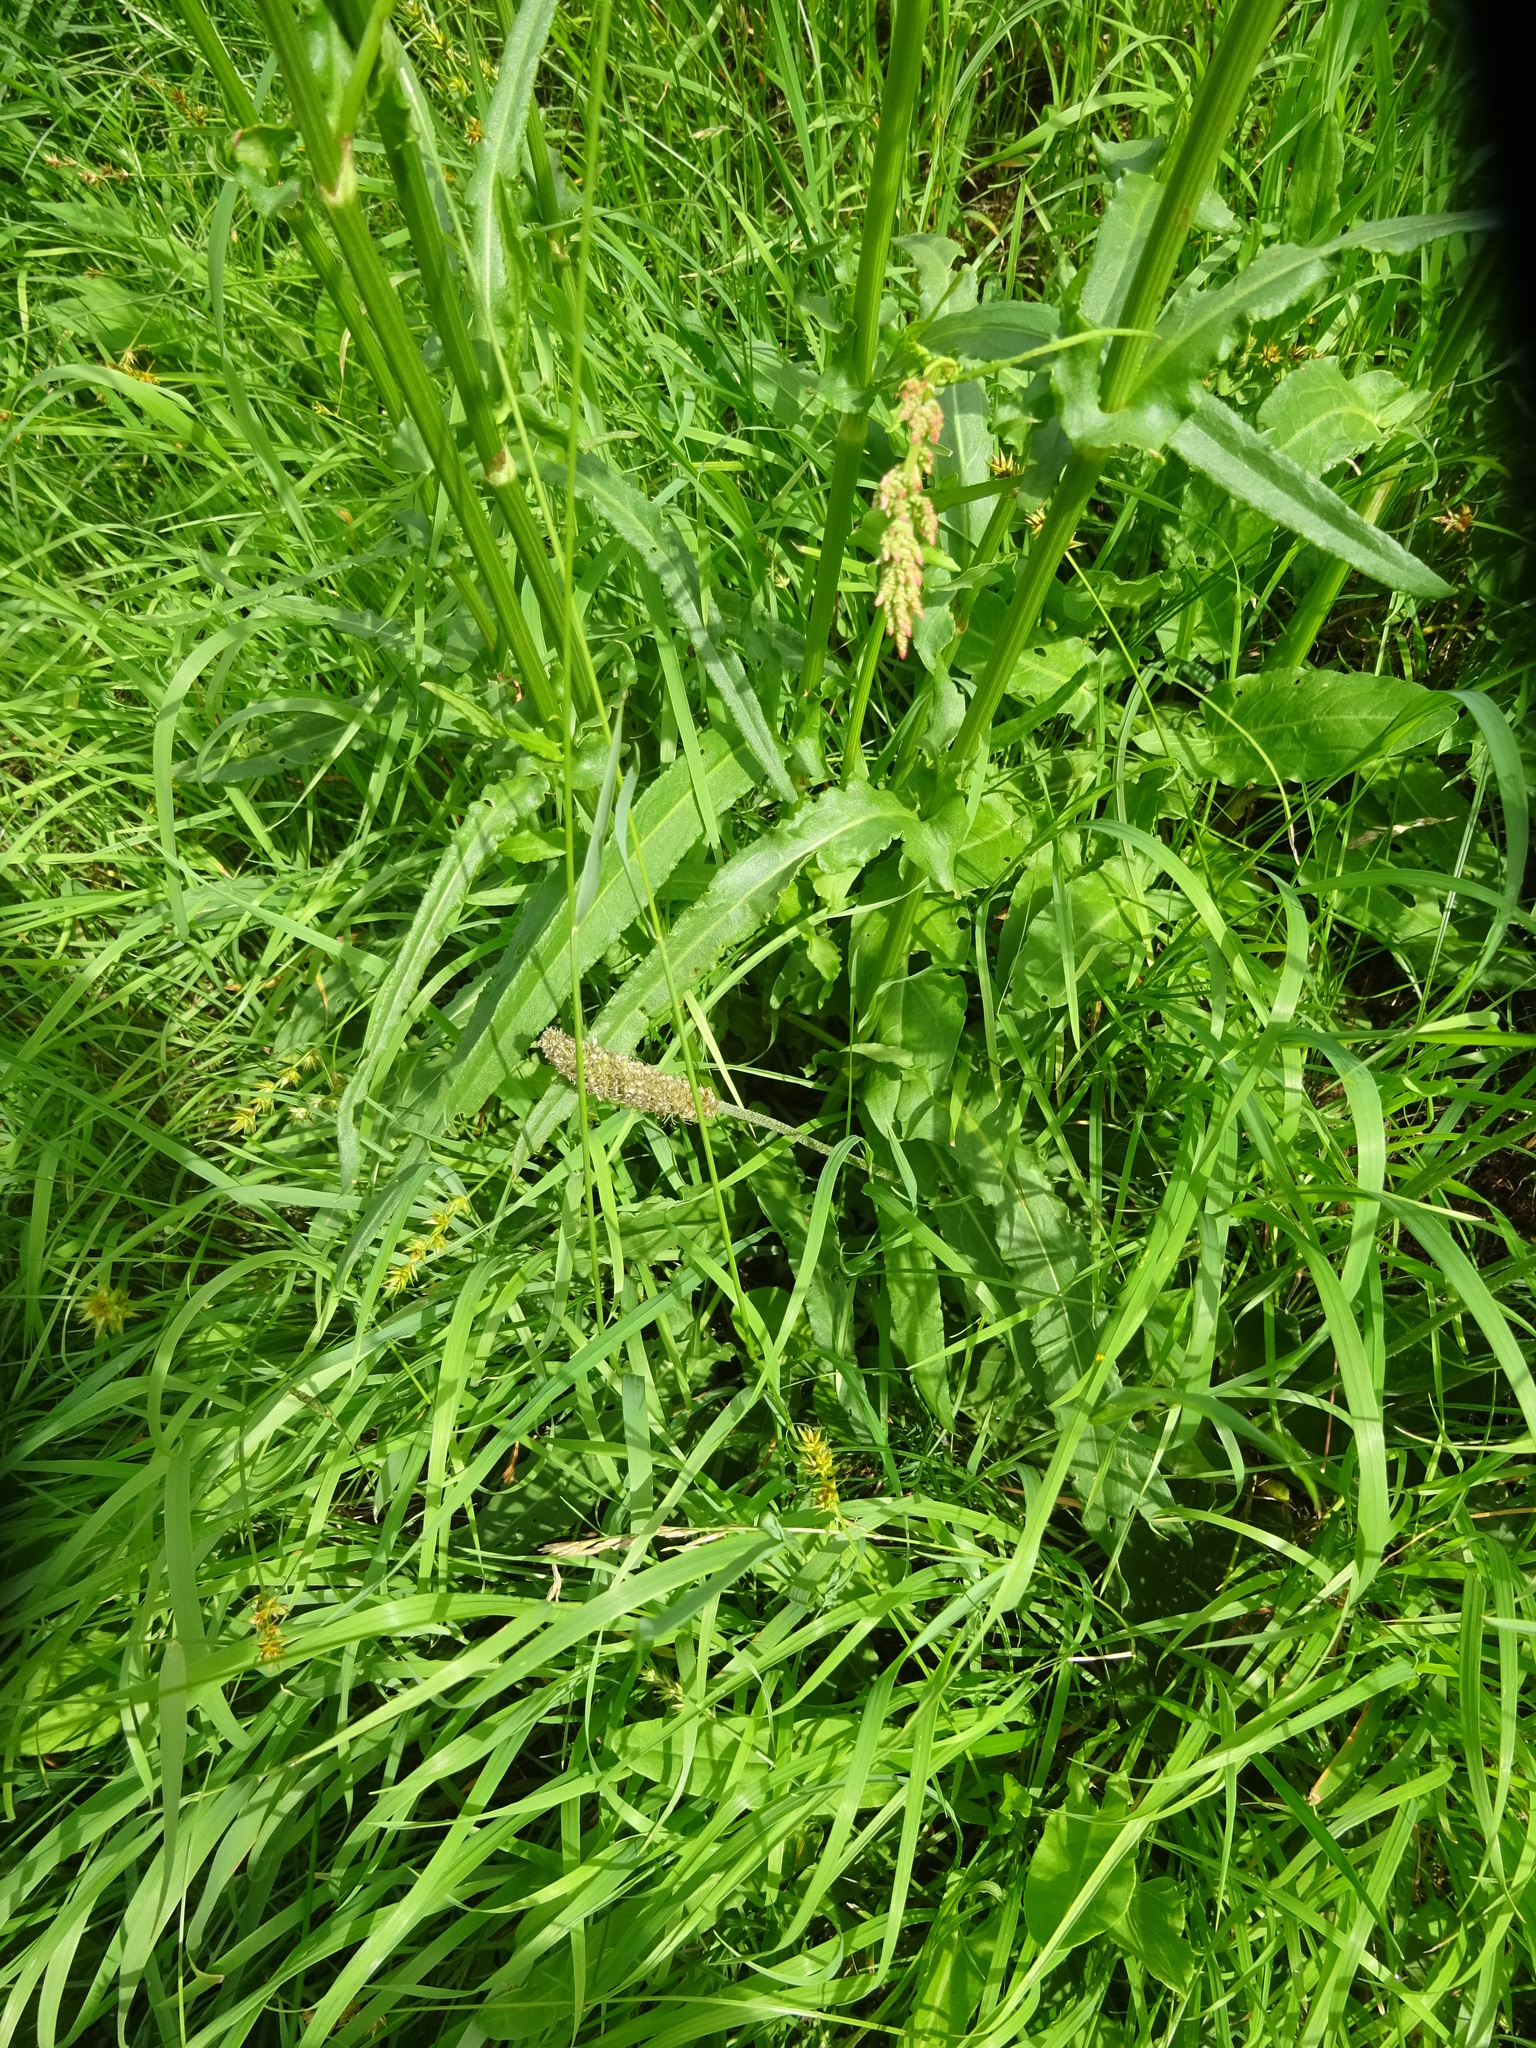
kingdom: Plantae
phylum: Tracheophyta
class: Magnoliopsida
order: Lamiales
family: Plantaginaceae
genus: Plantago
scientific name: Plantago media
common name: Hoary plantain
